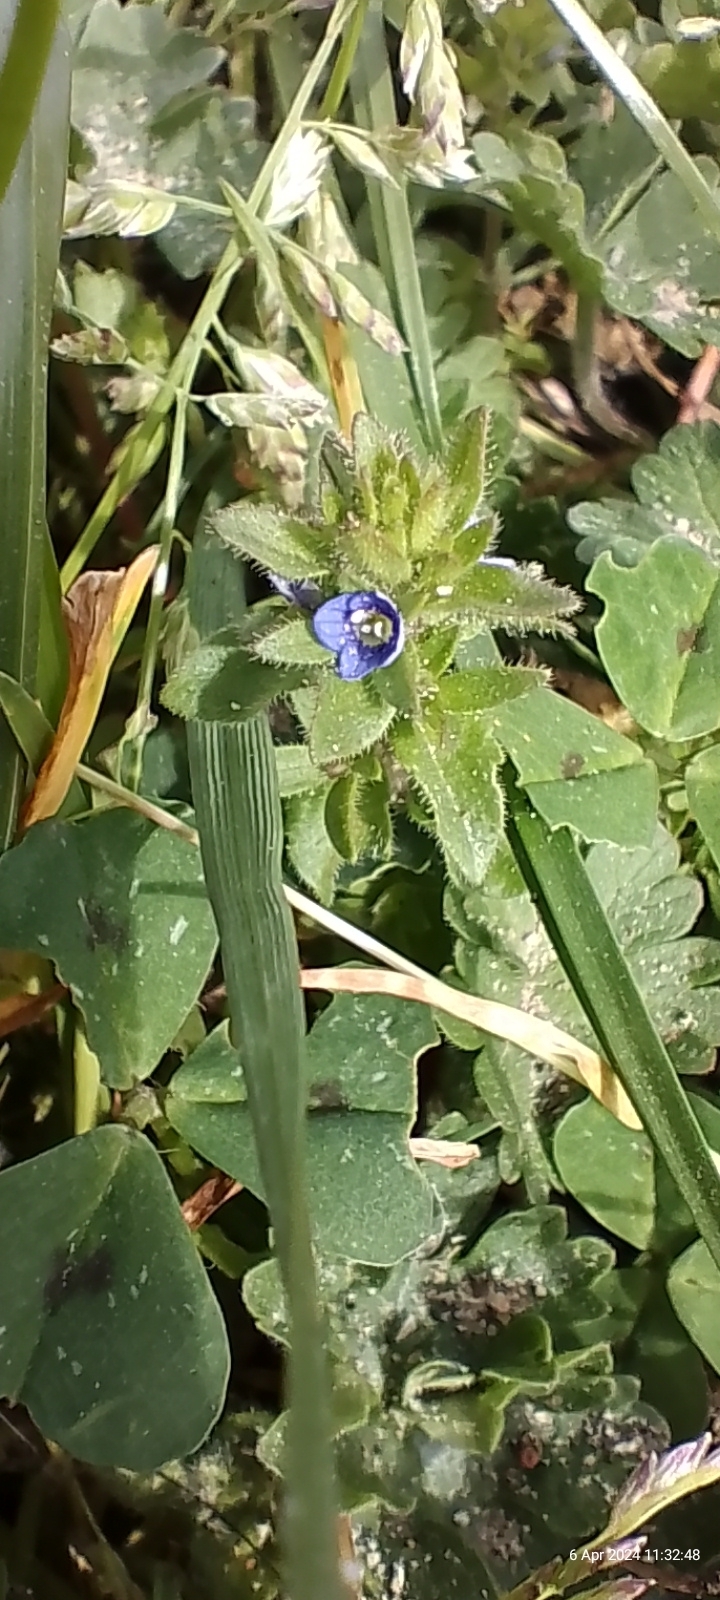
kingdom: Plantae
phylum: Tracheophyta
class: Magnoliopsida
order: Lamiales
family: Plantaginaceae
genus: Veronica
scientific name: Veronica arvensis
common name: Corn speedwell
